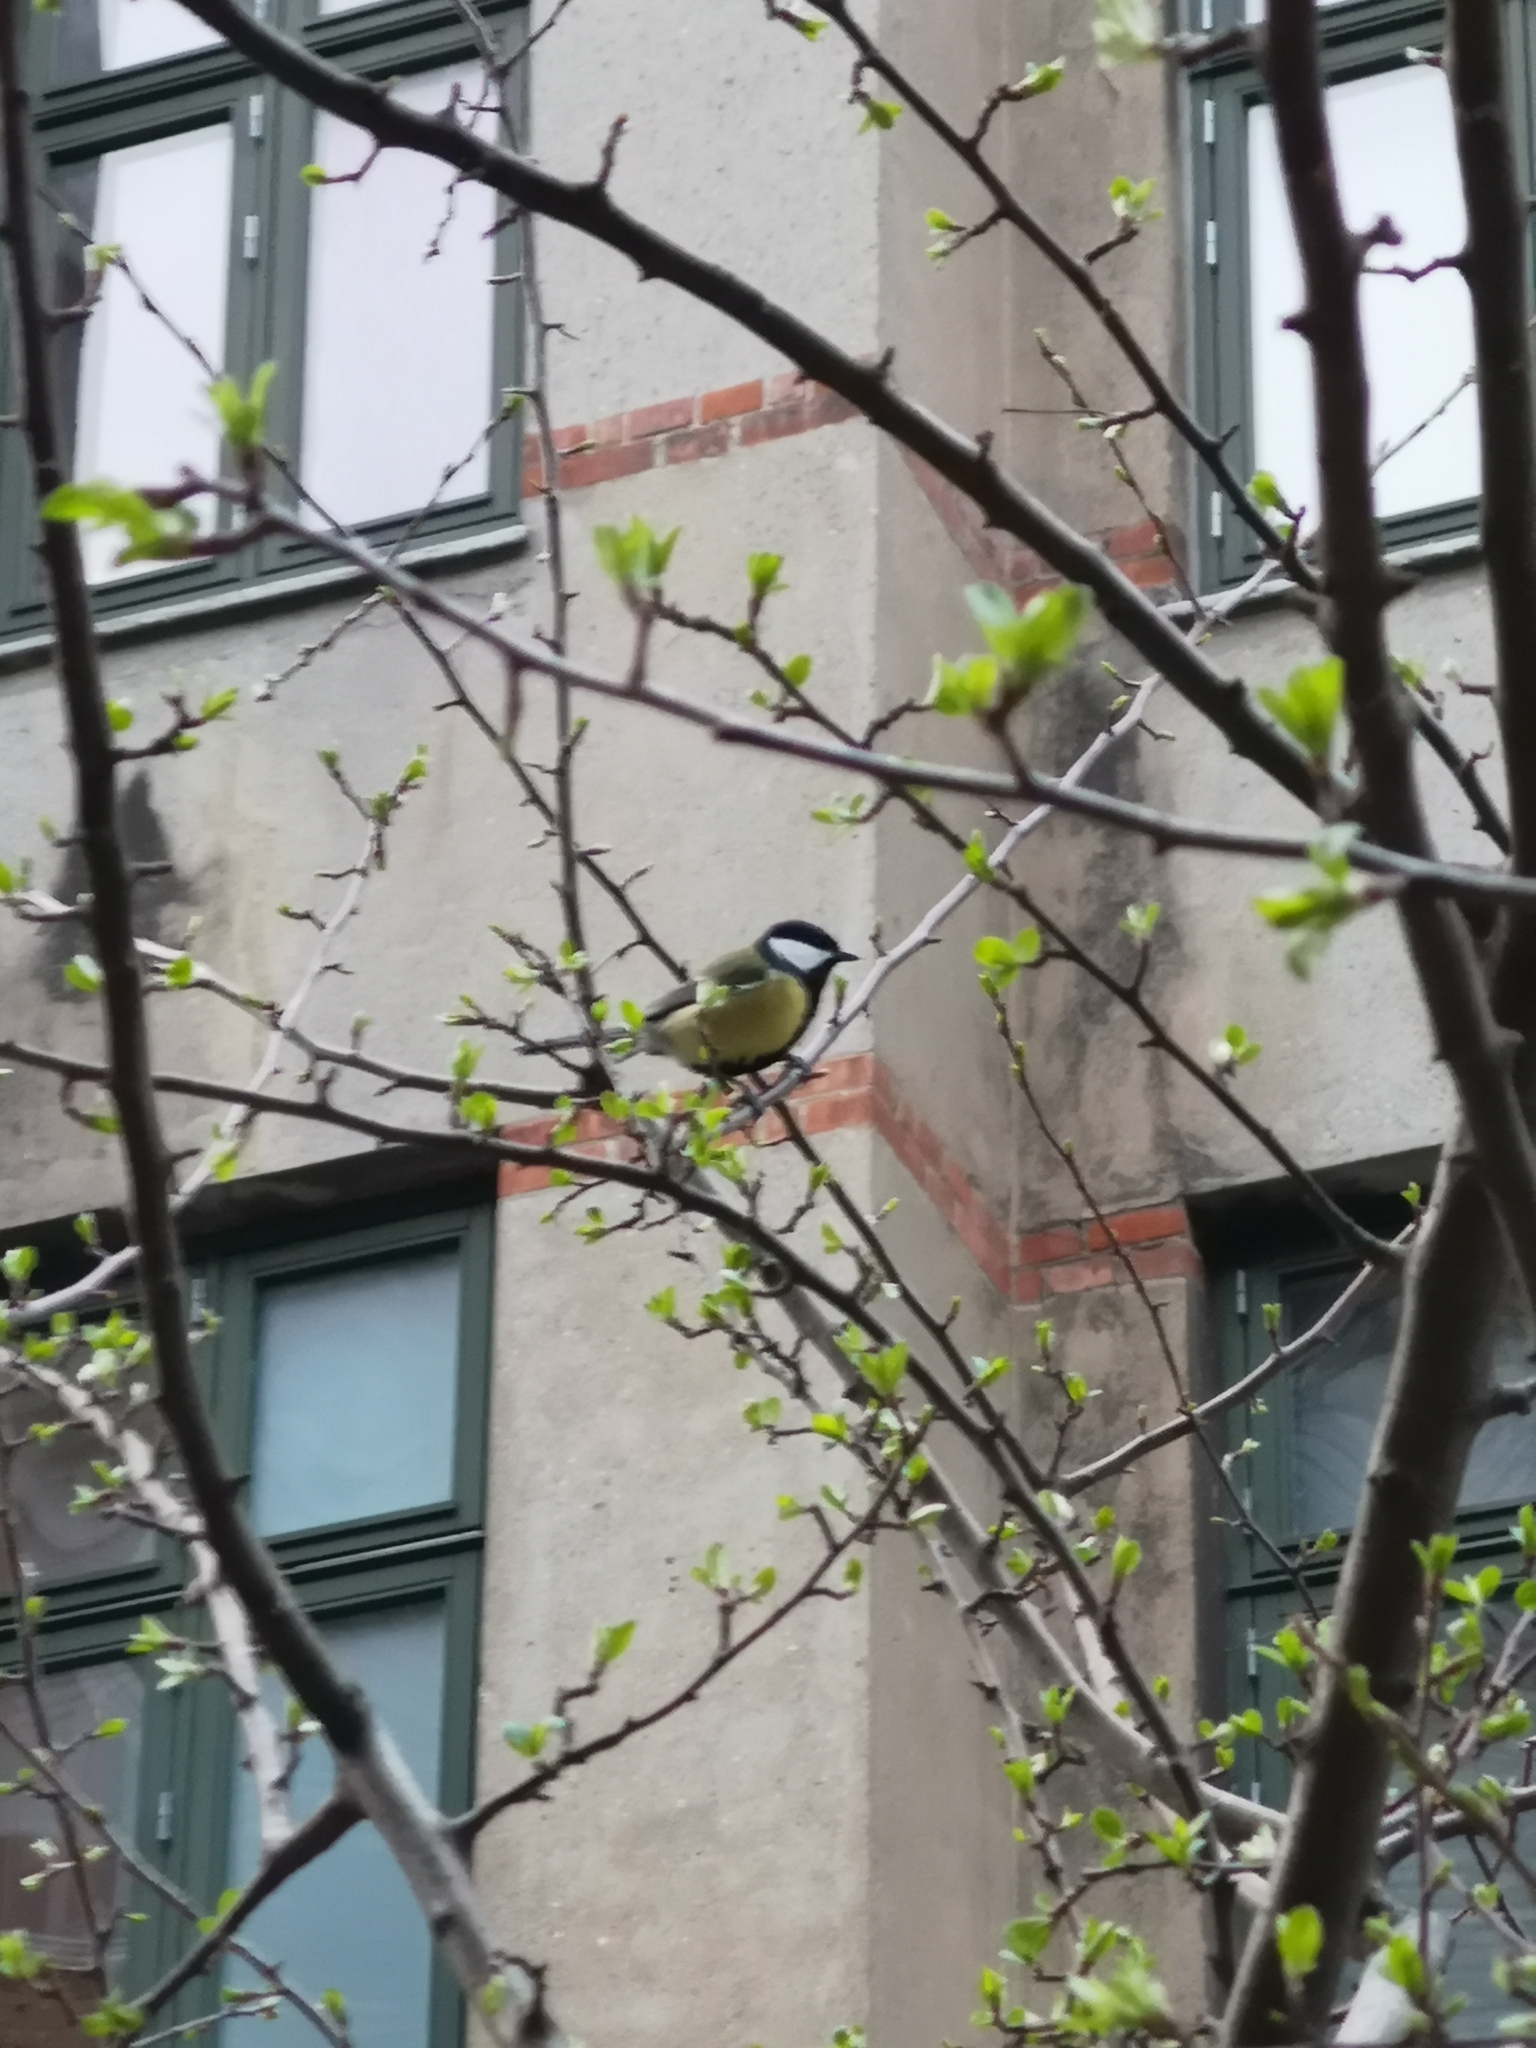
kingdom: Animalia
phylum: Chordata
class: Aves
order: Passeriformes
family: Paridae
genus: Parus
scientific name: Parus major
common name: Great tit
